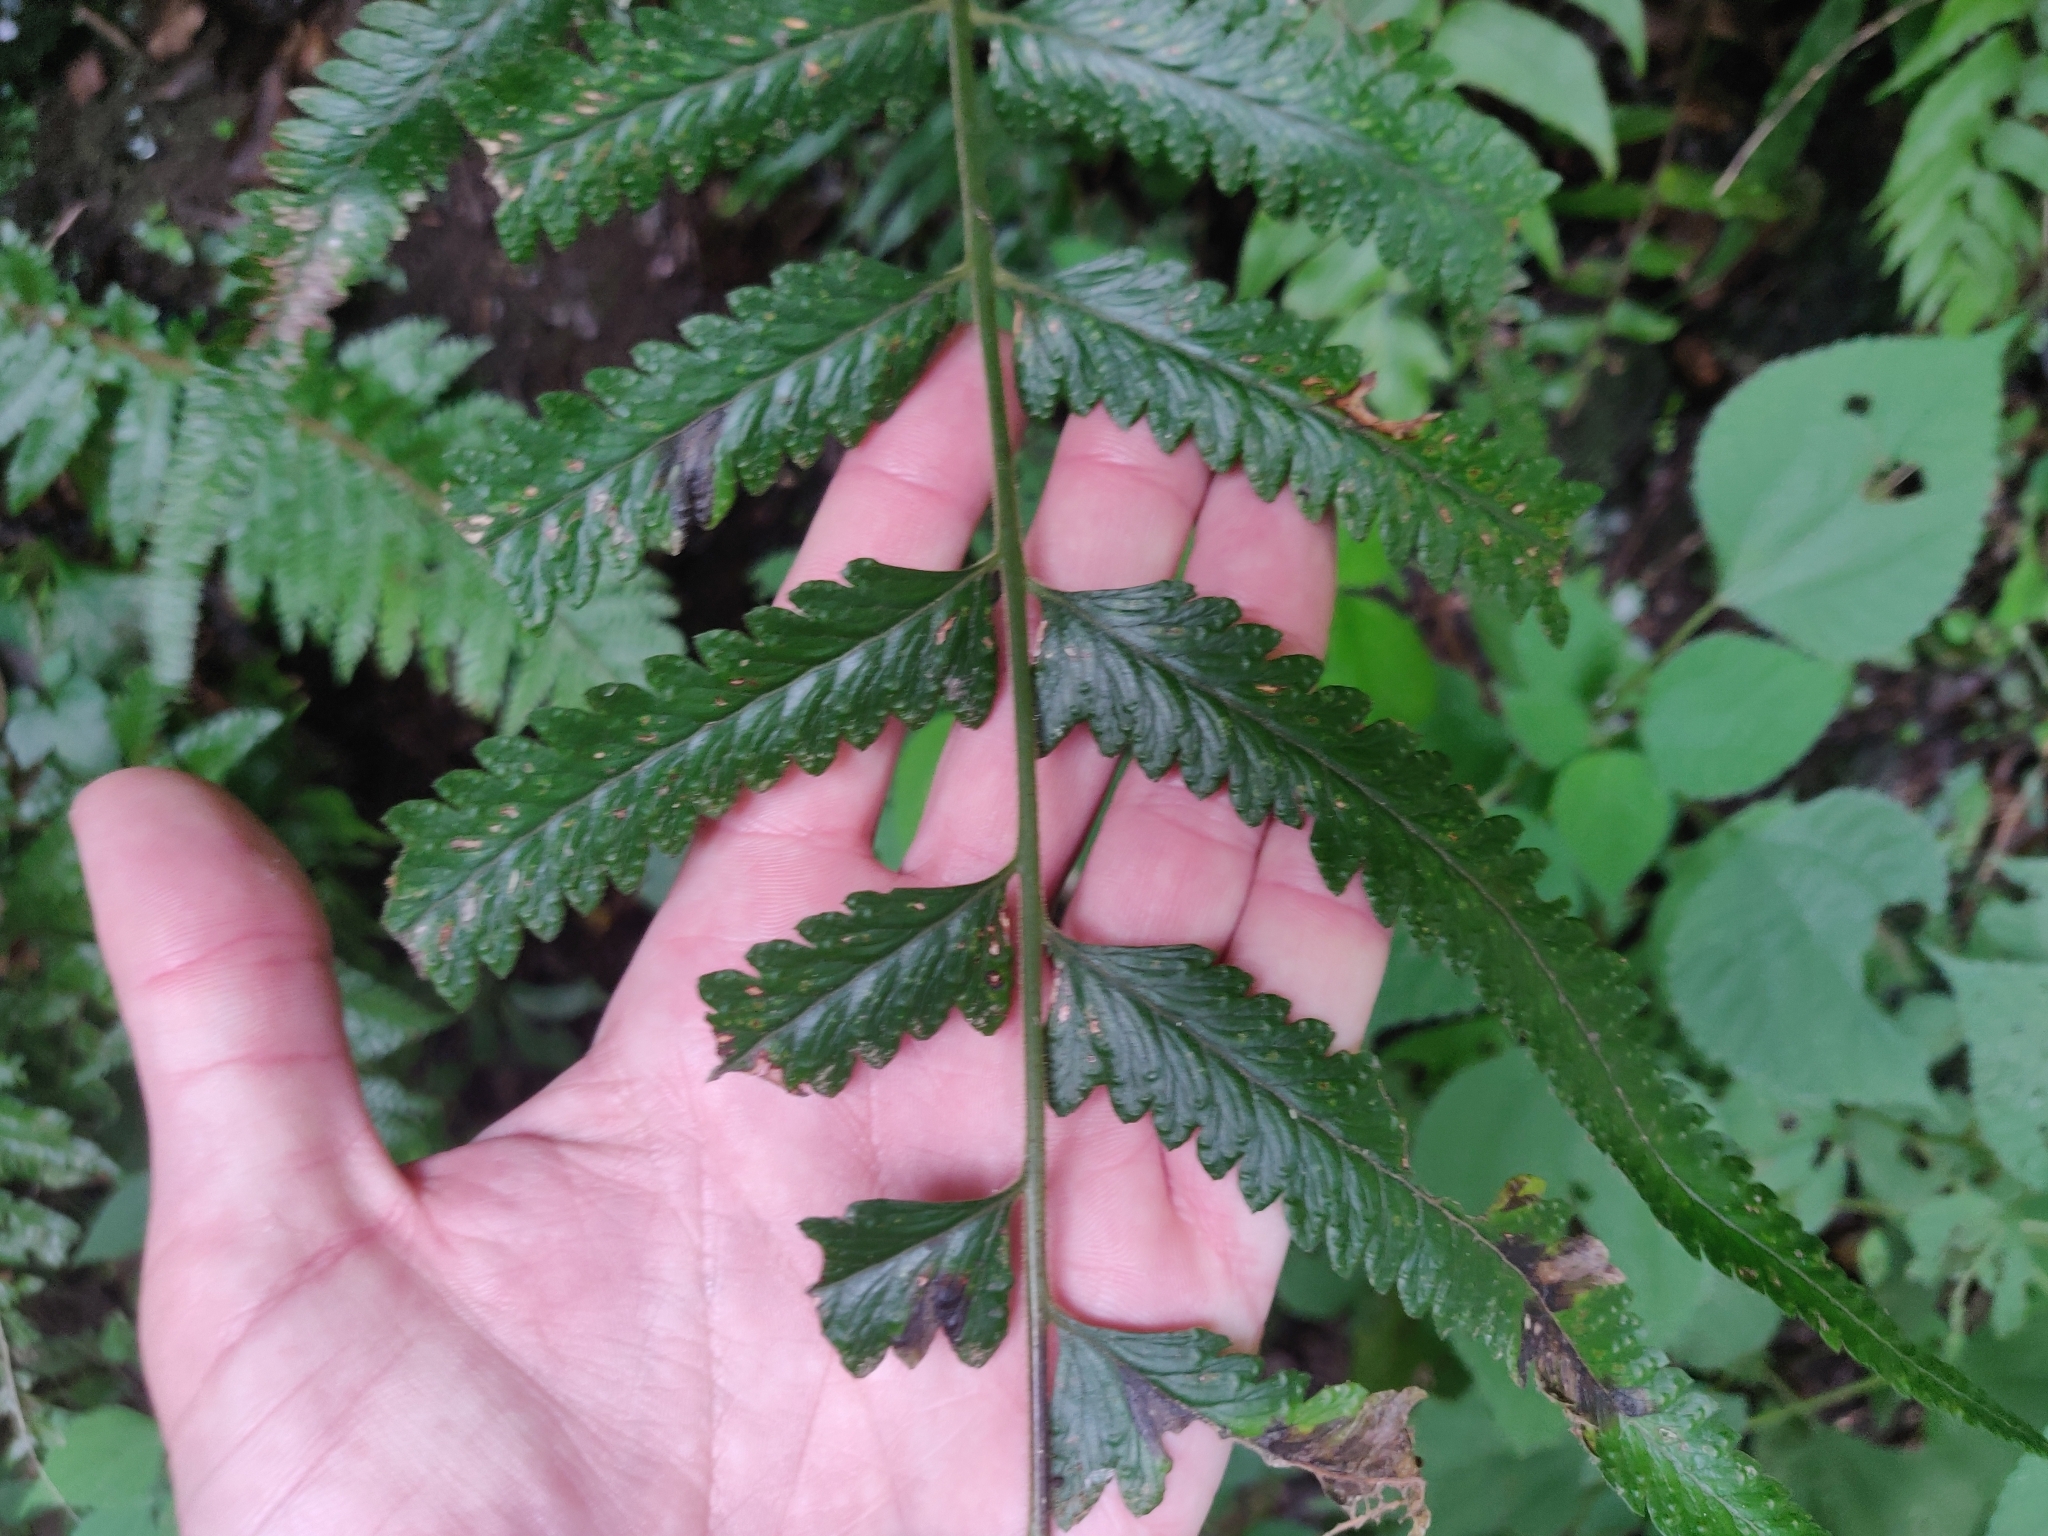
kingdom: Plantae
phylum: Tracheophyta
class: Polypodiopsida
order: Polypodiales
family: Dennstaedtiaceae
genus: Microlepia
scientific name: Microlepia marginata
